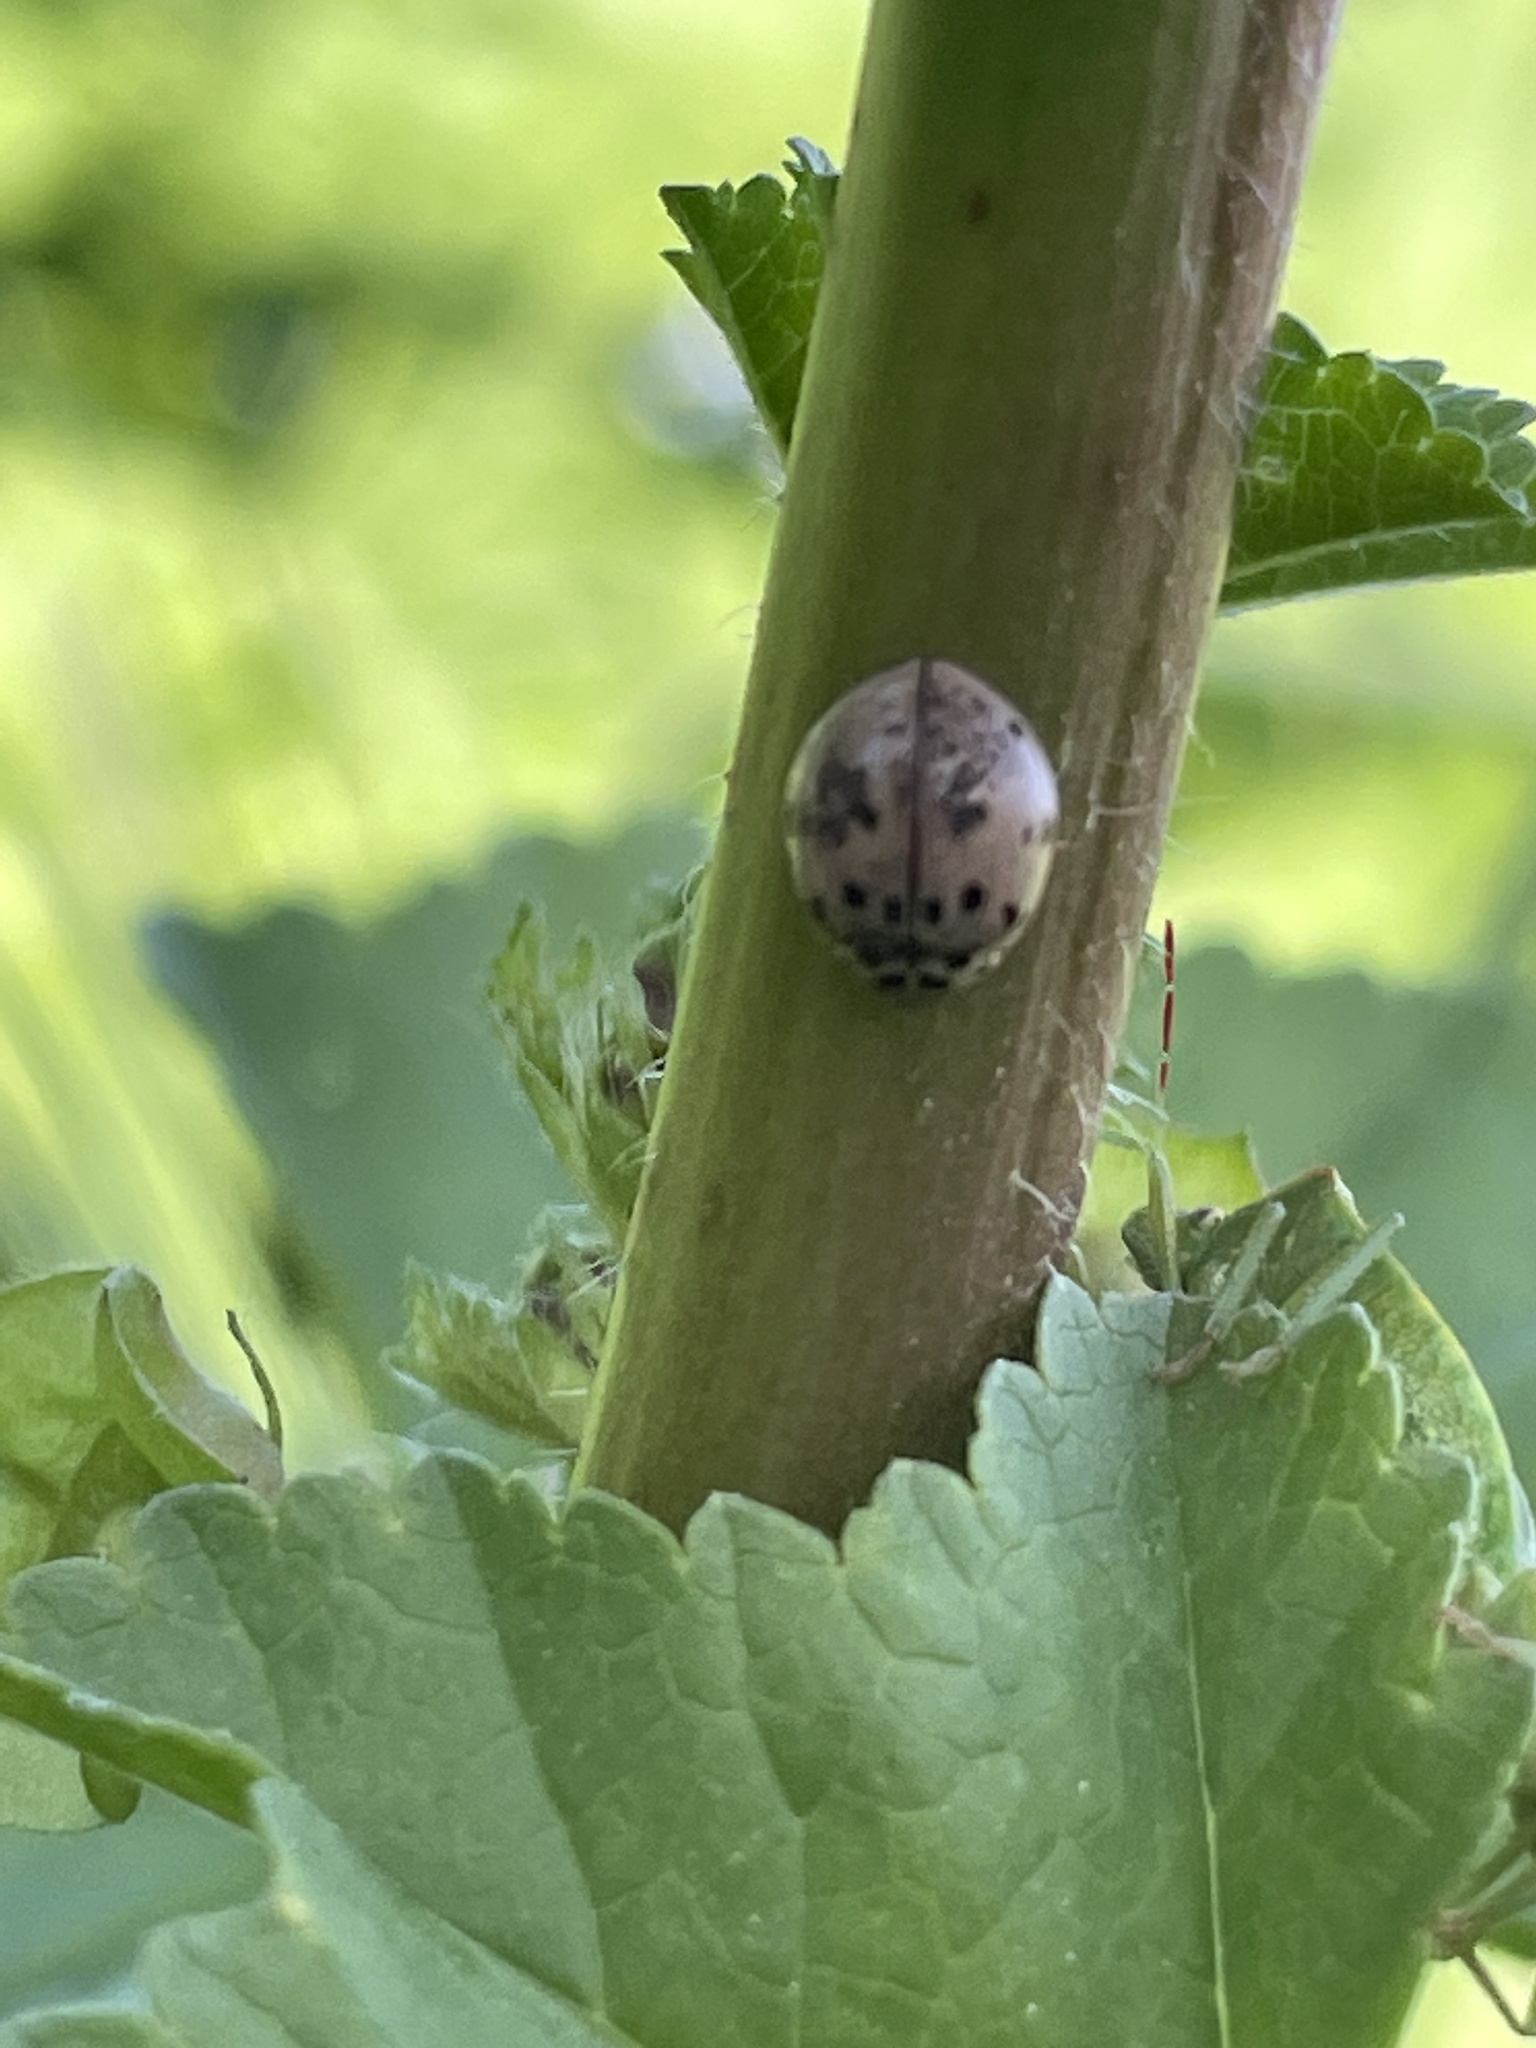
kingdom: Animalia
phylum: Arthropoda
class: Insecta
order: Coleoptera
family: Coccinellidae
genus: Olla
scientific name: Olla v-nigrum
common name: Ashy gray lady beetle
